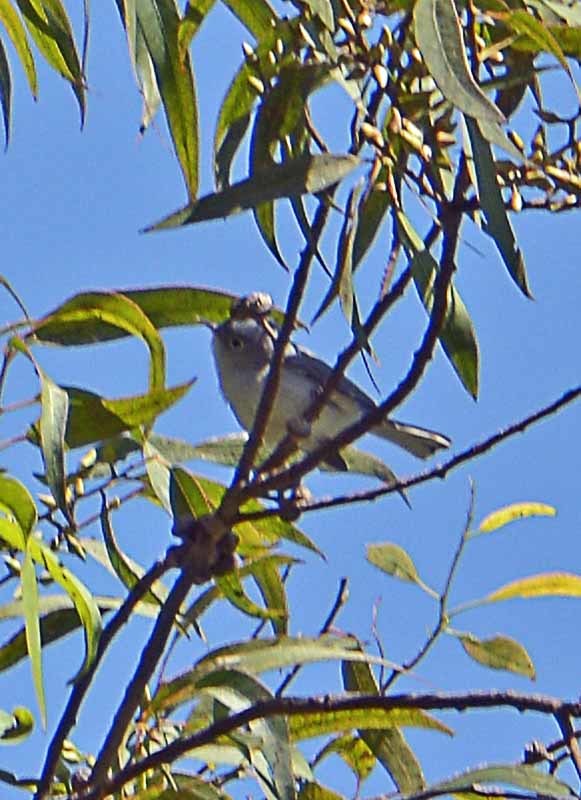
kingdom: Animalia
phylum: Chordata
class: Aves
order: Passeriformes
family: Polioptilidae
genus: Polioptila
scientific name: Polioptila caerulea
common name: Blue-gray gnatcatcher
